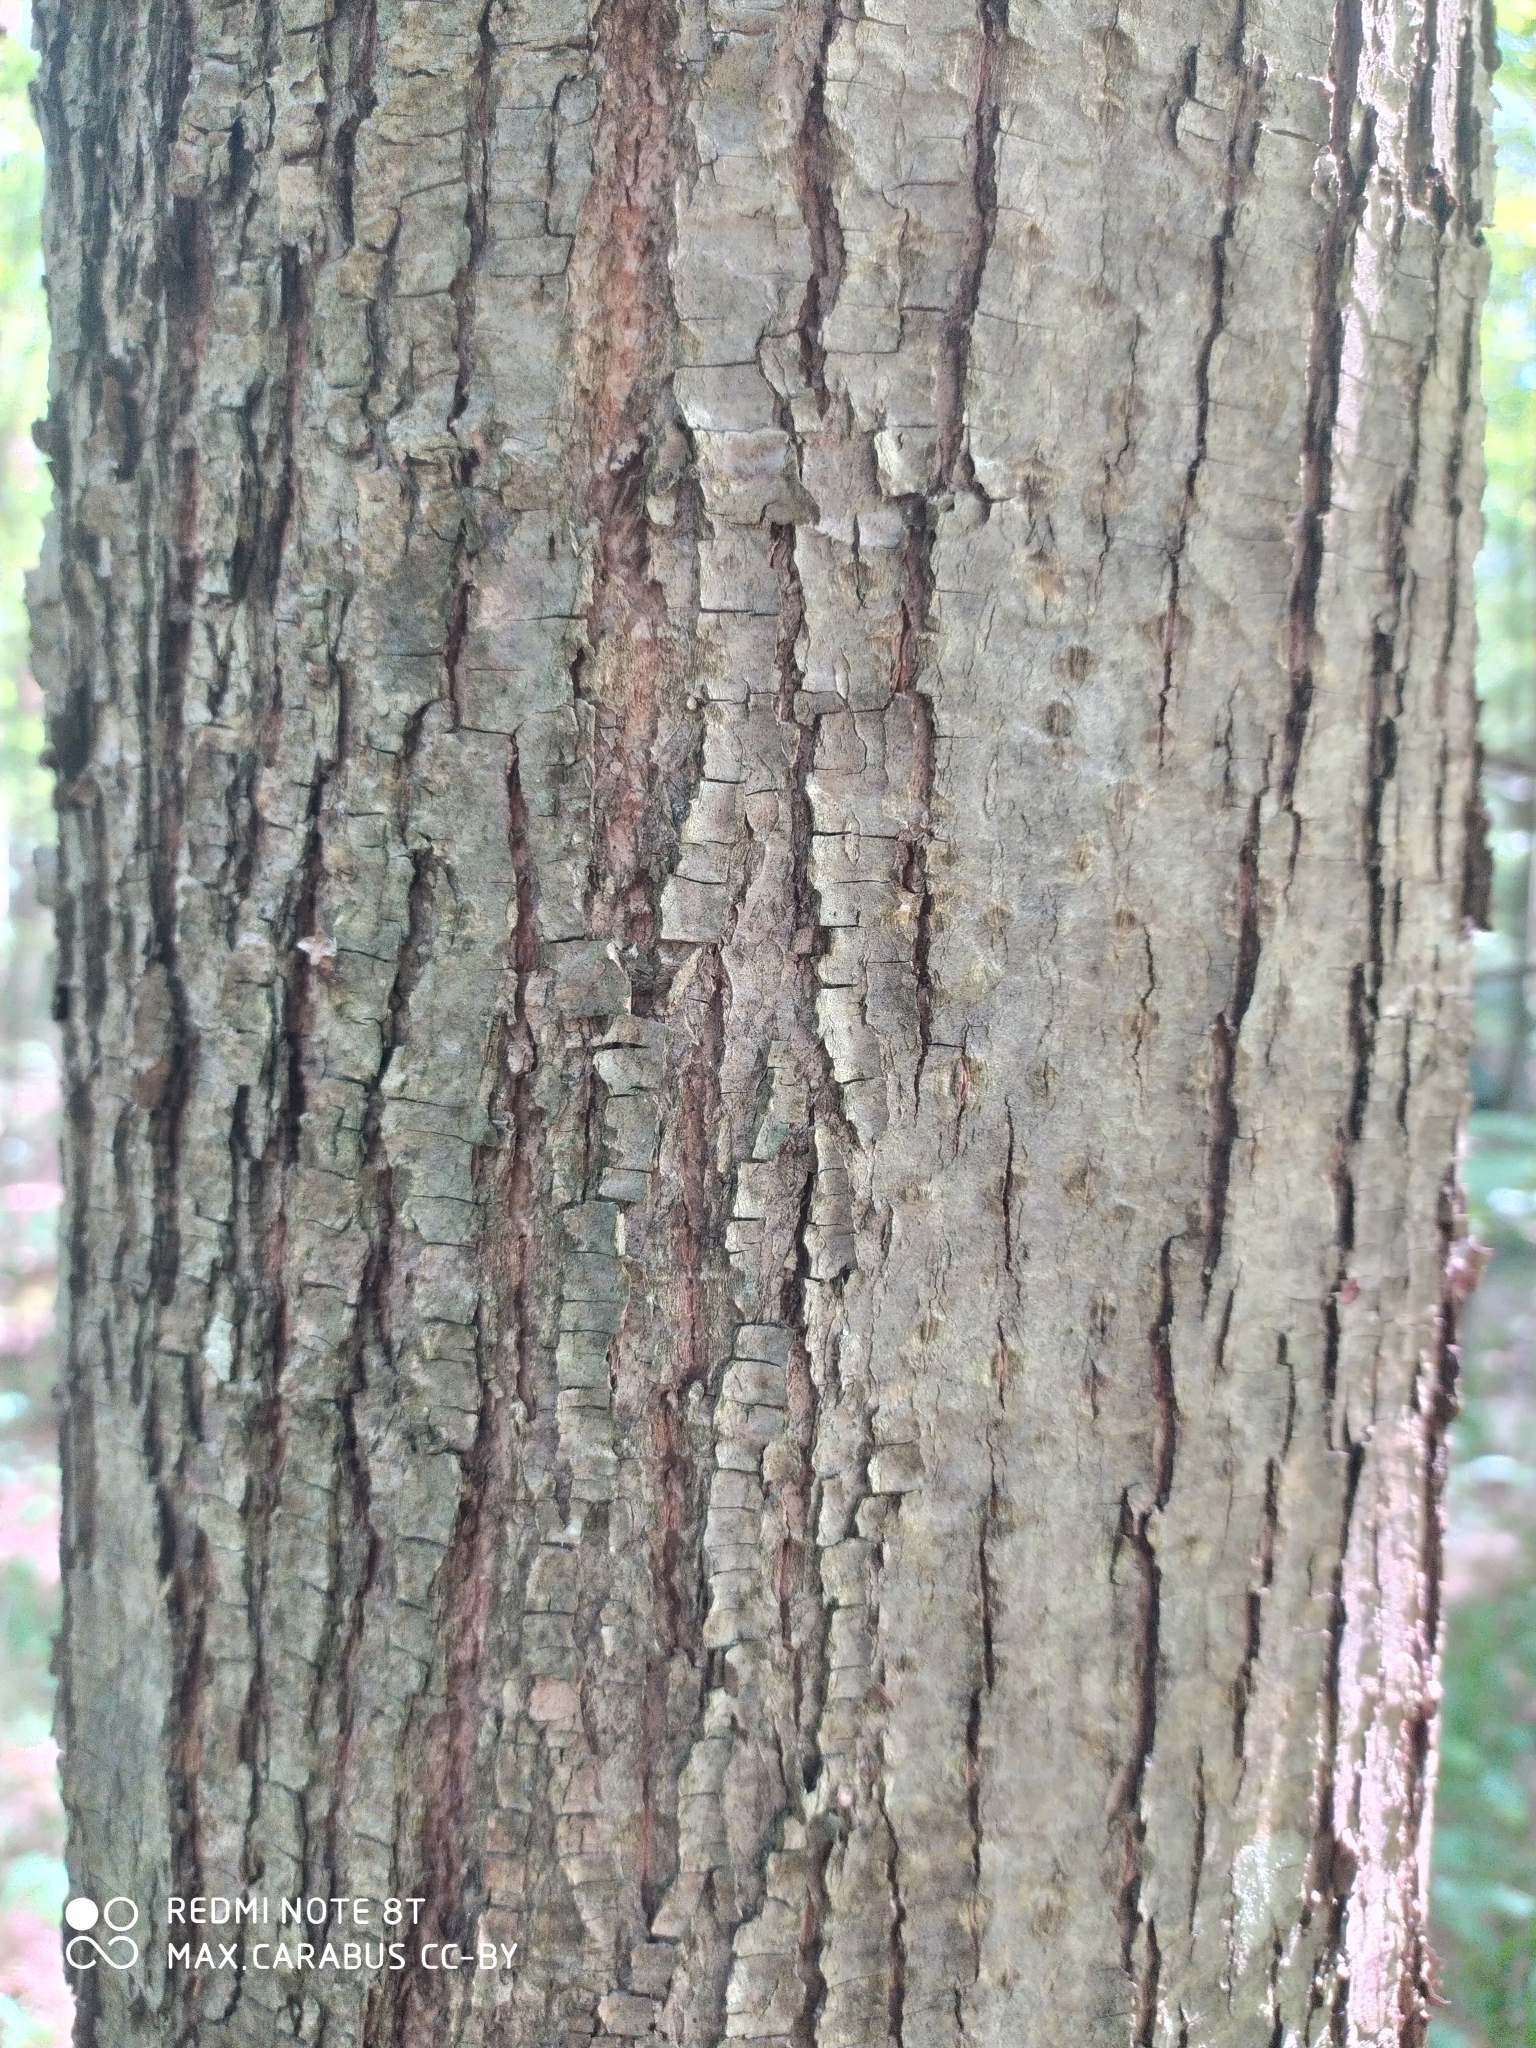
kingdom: Plantae
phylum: Tracheophyta
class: Magnoliopsida
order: Malvales
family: Malvaceae
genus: Tilia
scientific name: Tilia cordata
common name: Small-leaved lime
